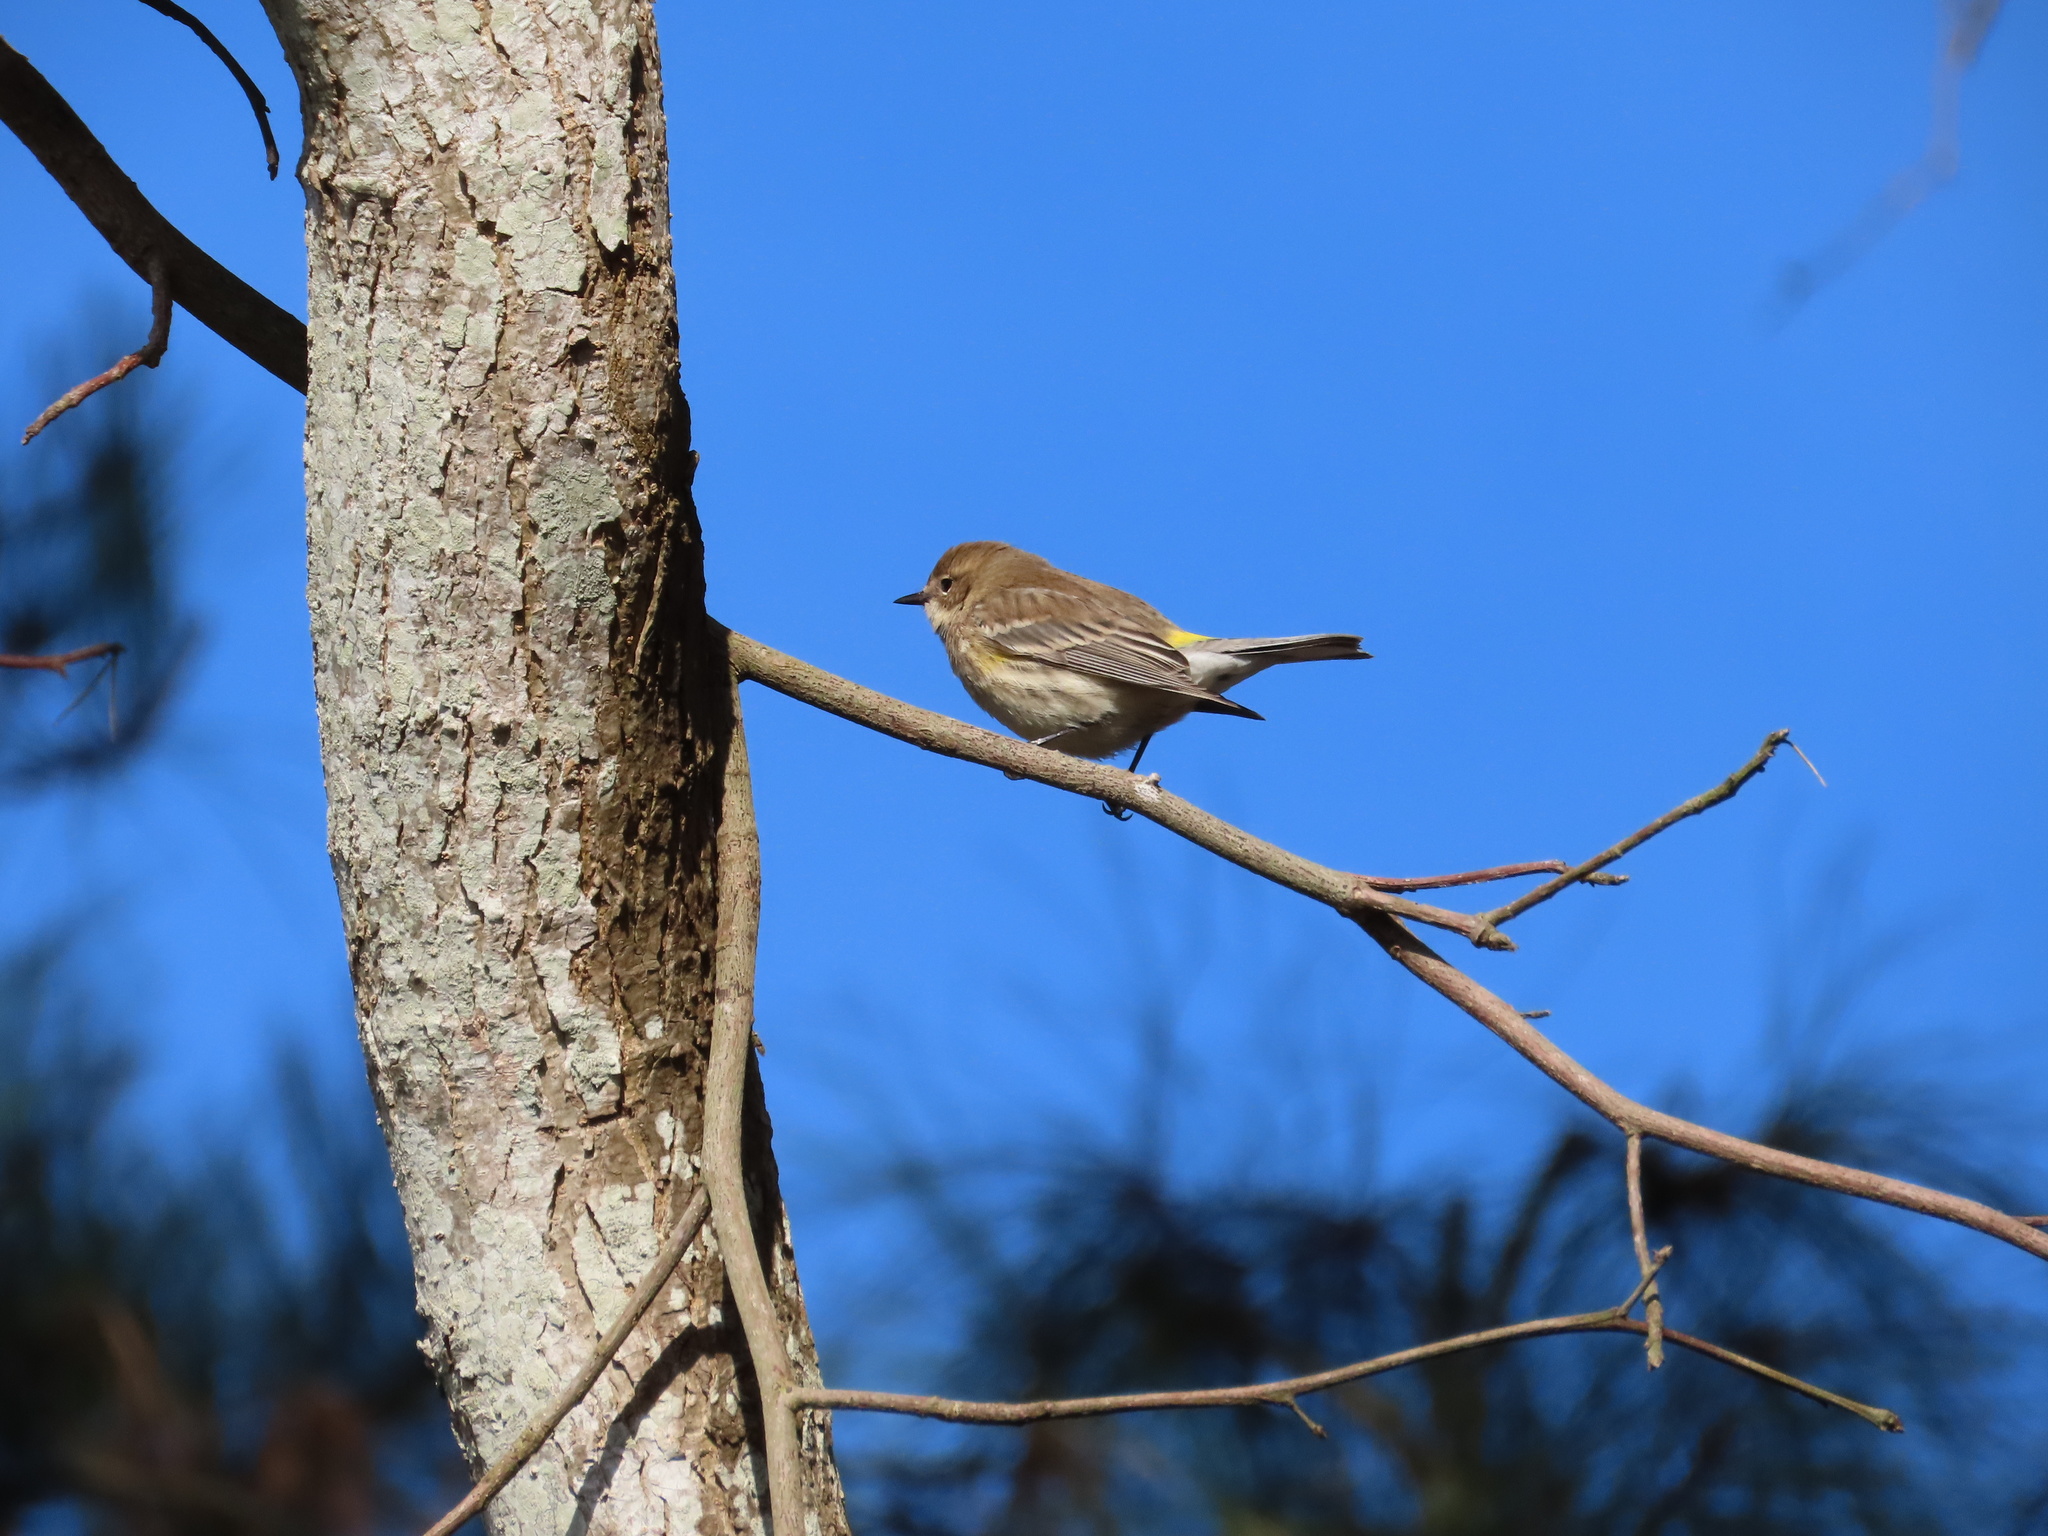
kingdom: Animalia
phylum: Chordata
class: Aves
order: Passeriformes
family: Parulidae
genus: Setophaga
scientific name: Setophaga coronata
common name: Myrtle warbler
